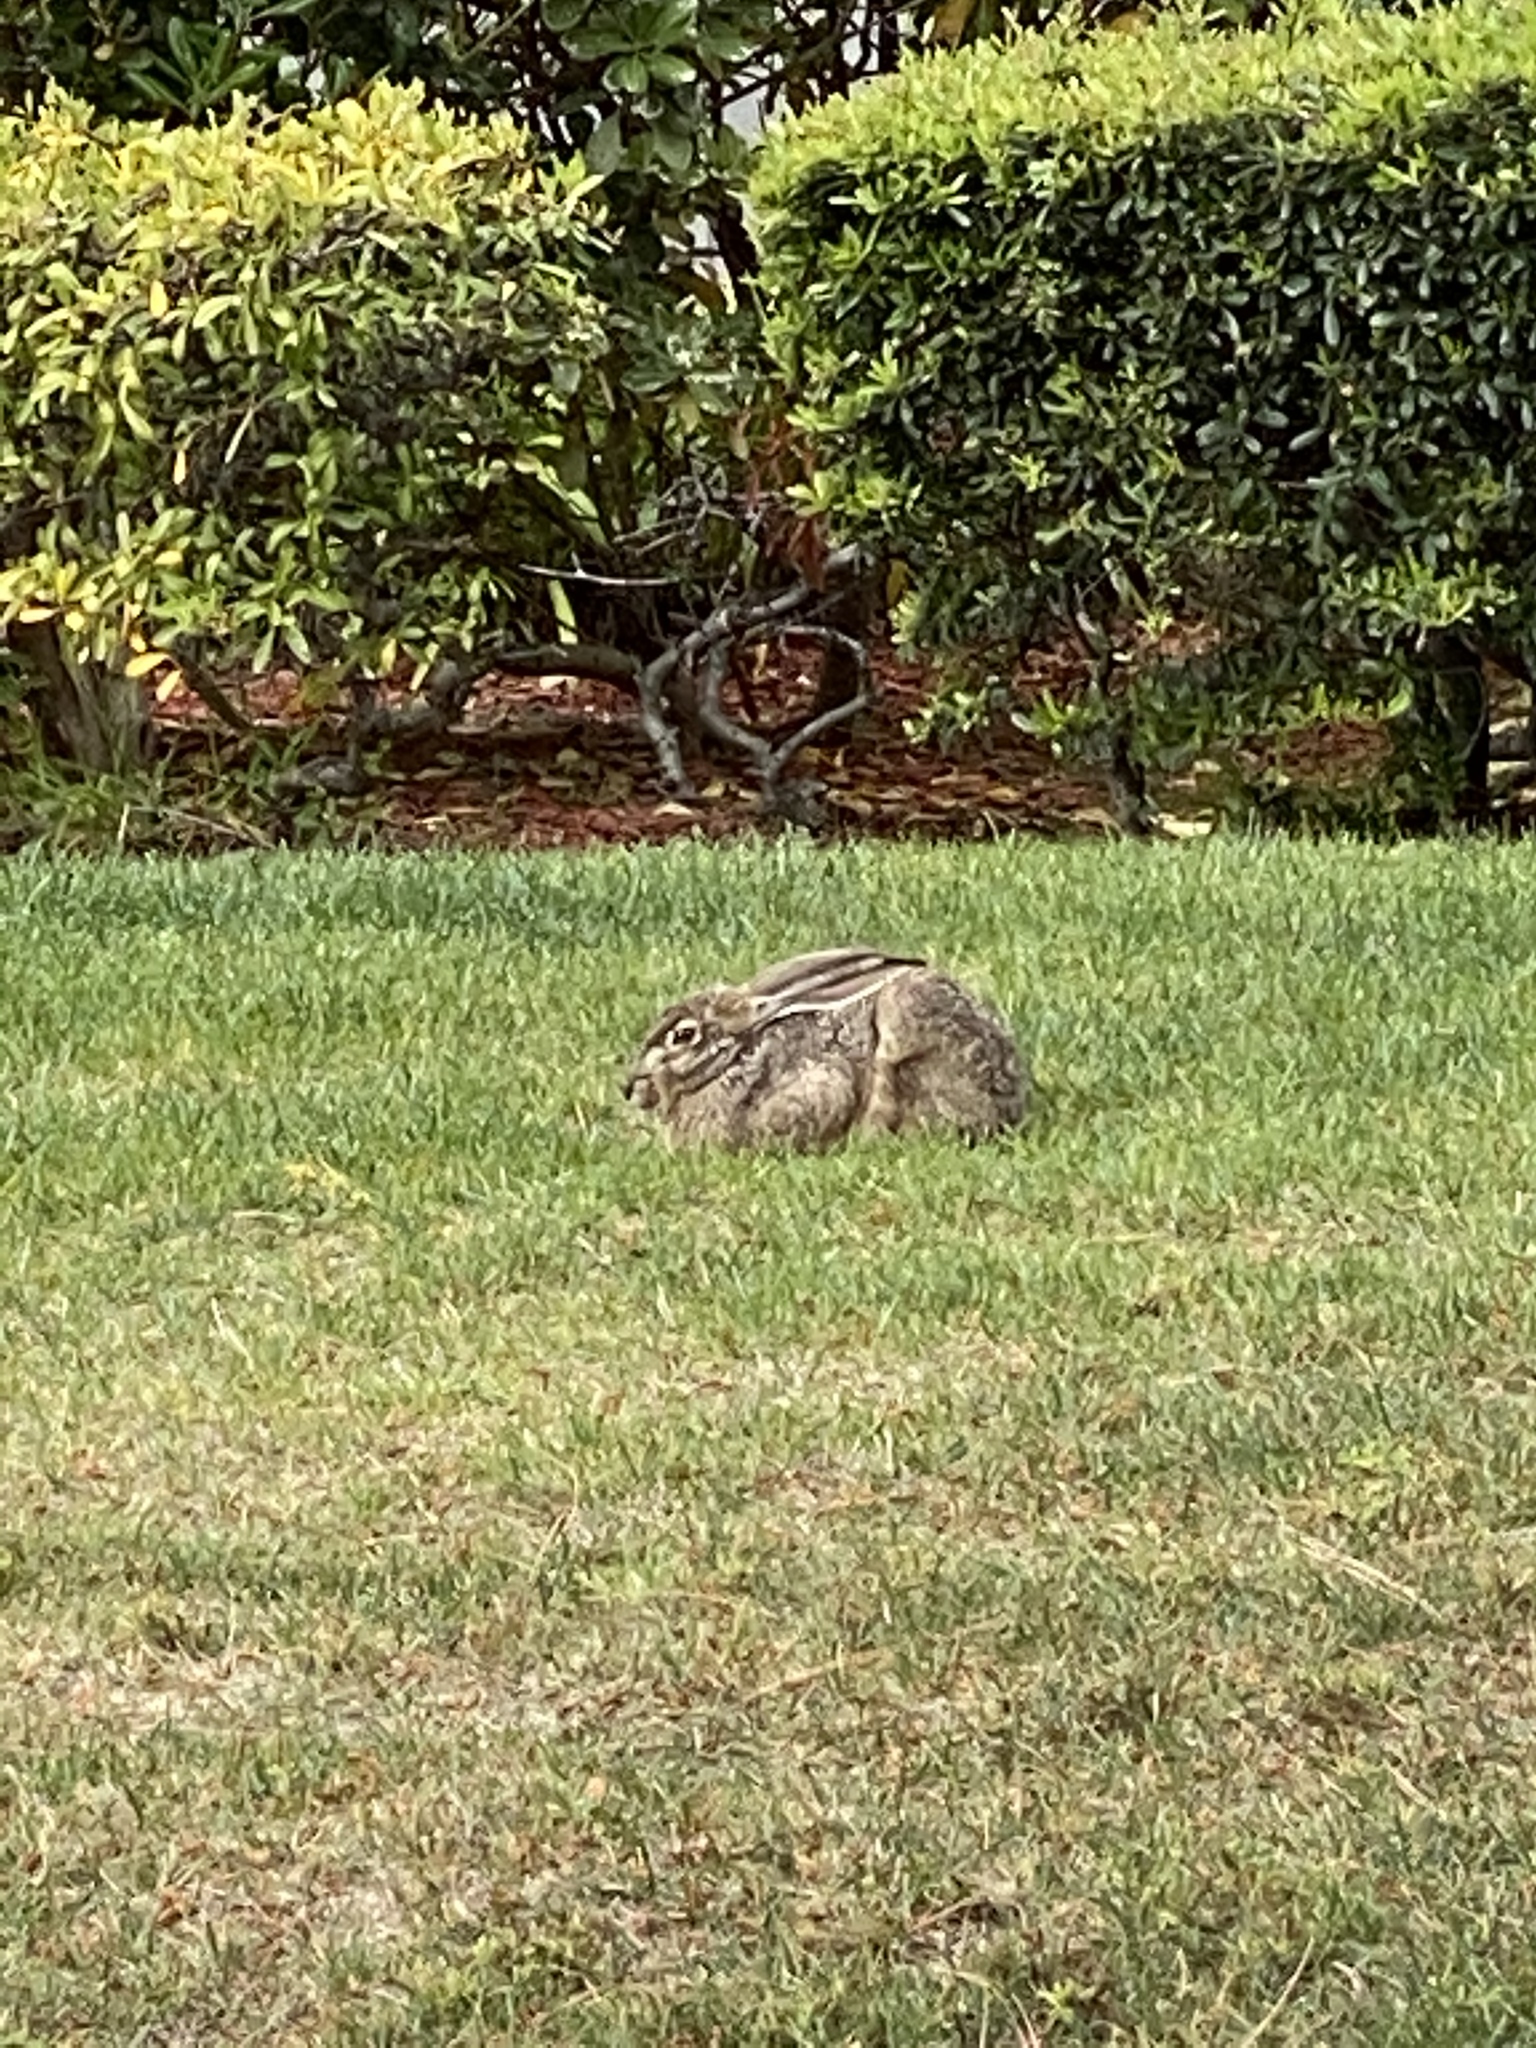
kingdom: Animalia
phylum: Chordata
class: Mammalia
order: Lagomorpha
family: Leporidae
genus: Lepus
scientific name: Lepus californicus
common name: Black-tailed jackrabbit
